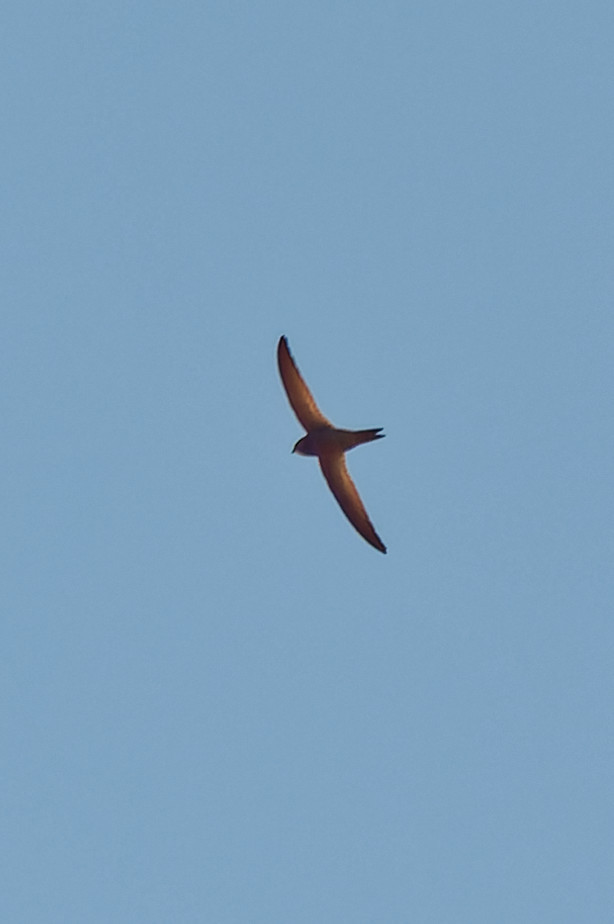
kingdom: Animalia
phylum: Chordata
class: Aves
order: Apodiformes
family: Apodidae
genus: Apus
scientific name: Apus pallidus
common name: Pallid swift
